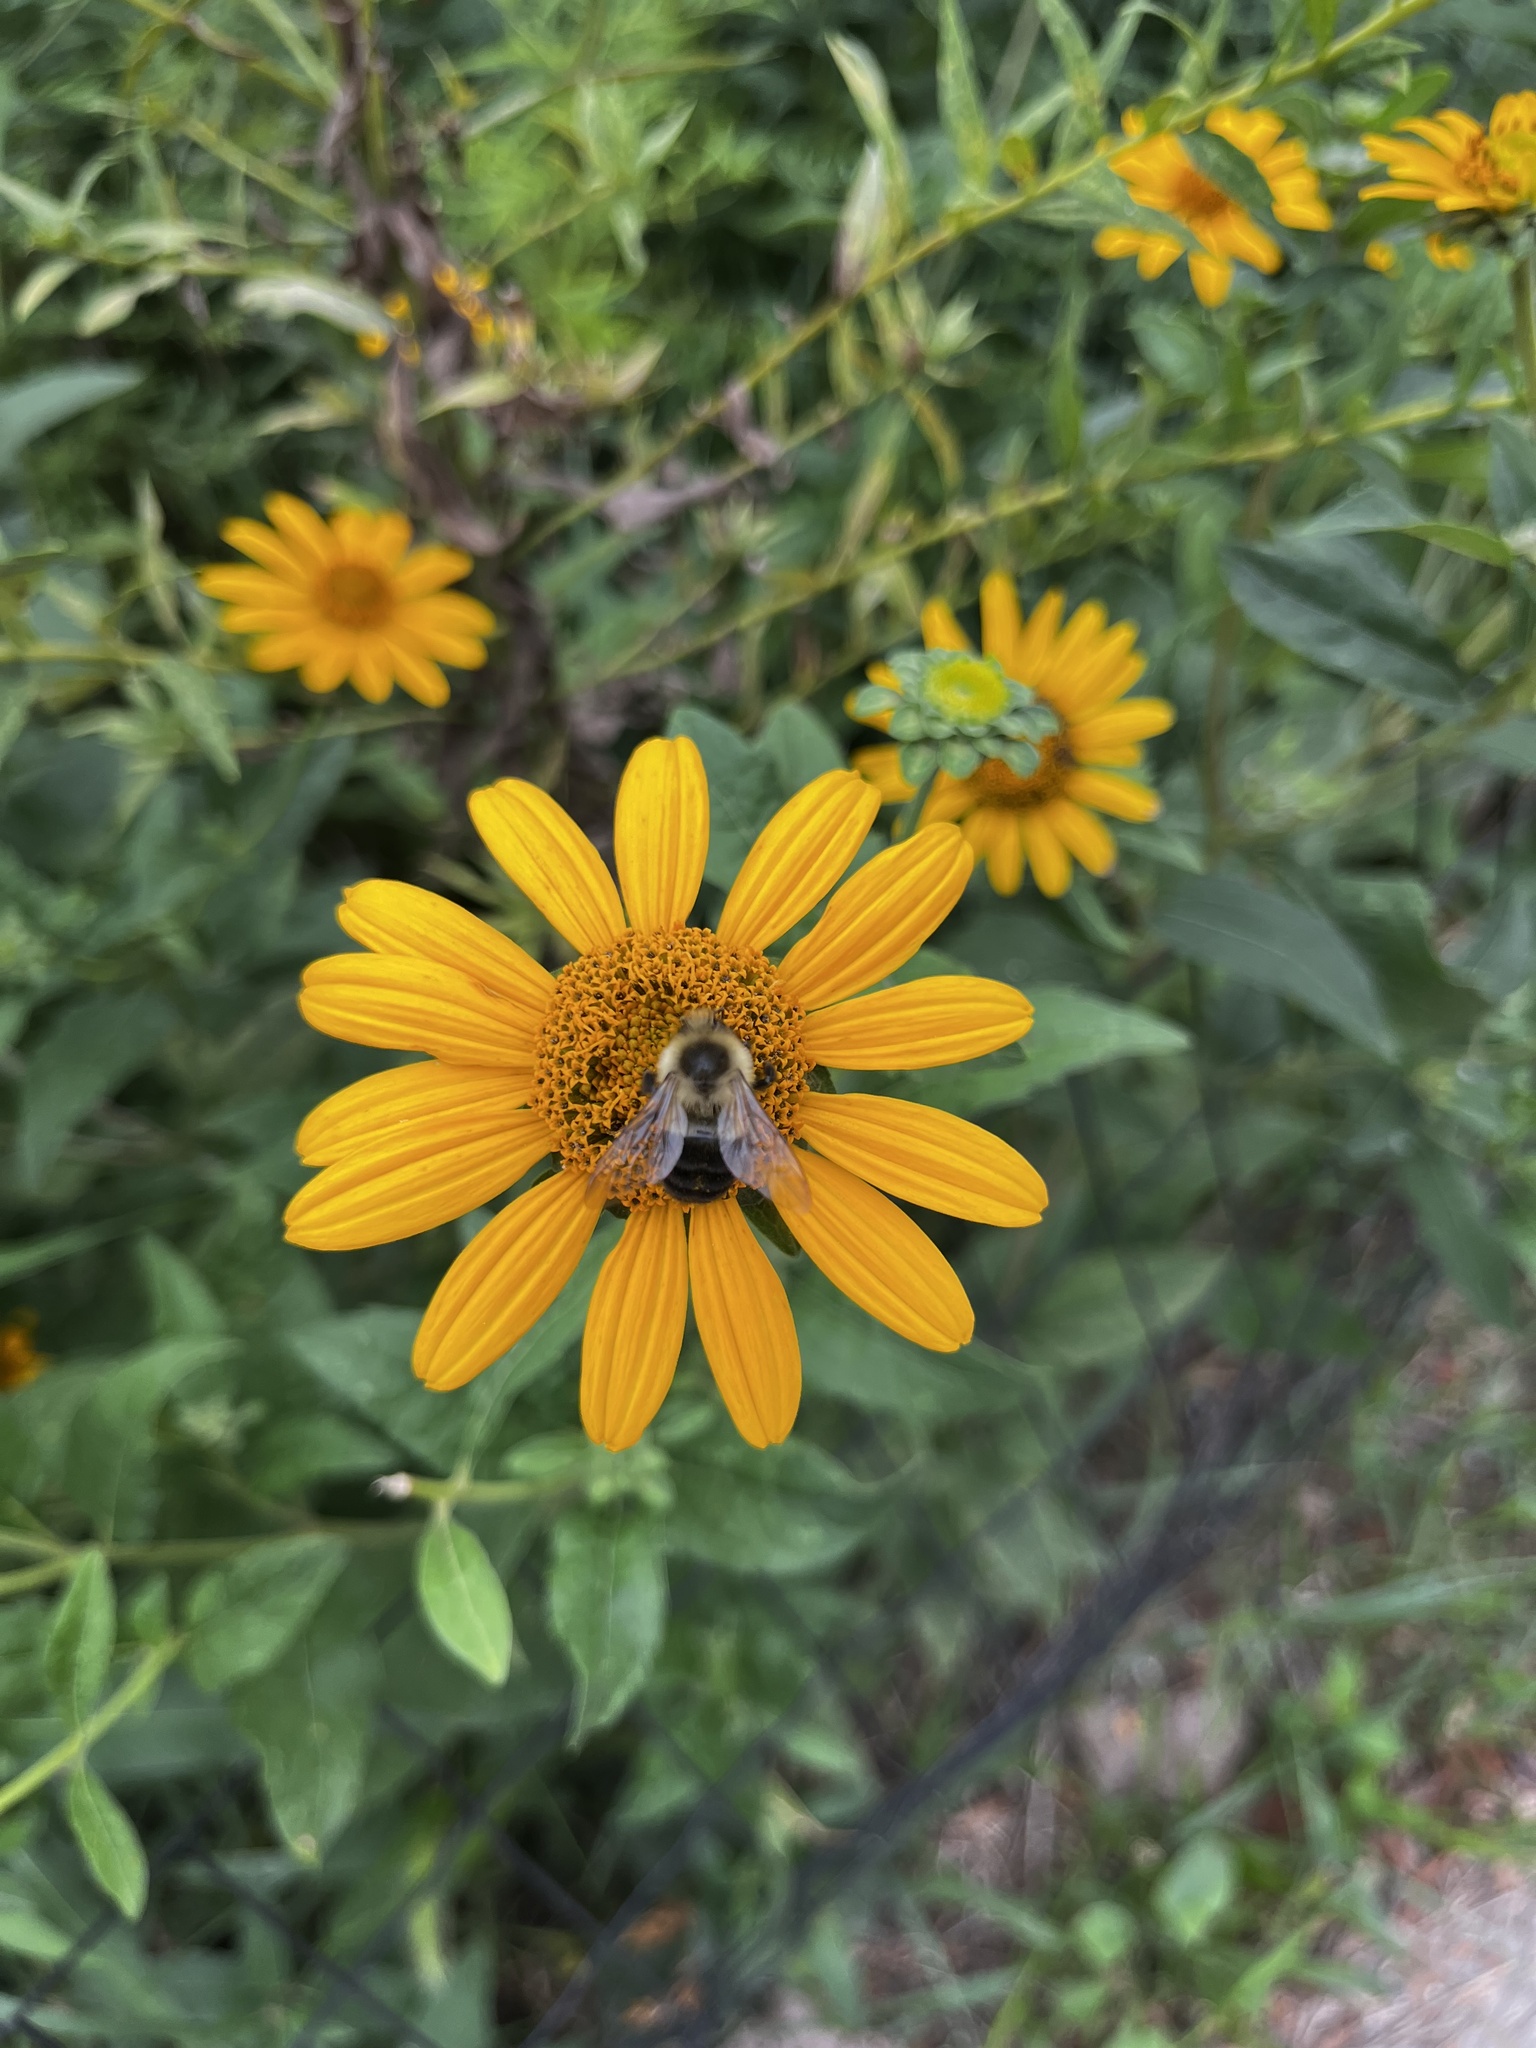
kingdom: Animalia
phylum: Arthropoda
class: Insecta
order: Hymenoptera
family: Apidae
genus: Bombus
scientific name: Bombus impatiens
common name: Common eastern bumble bee
